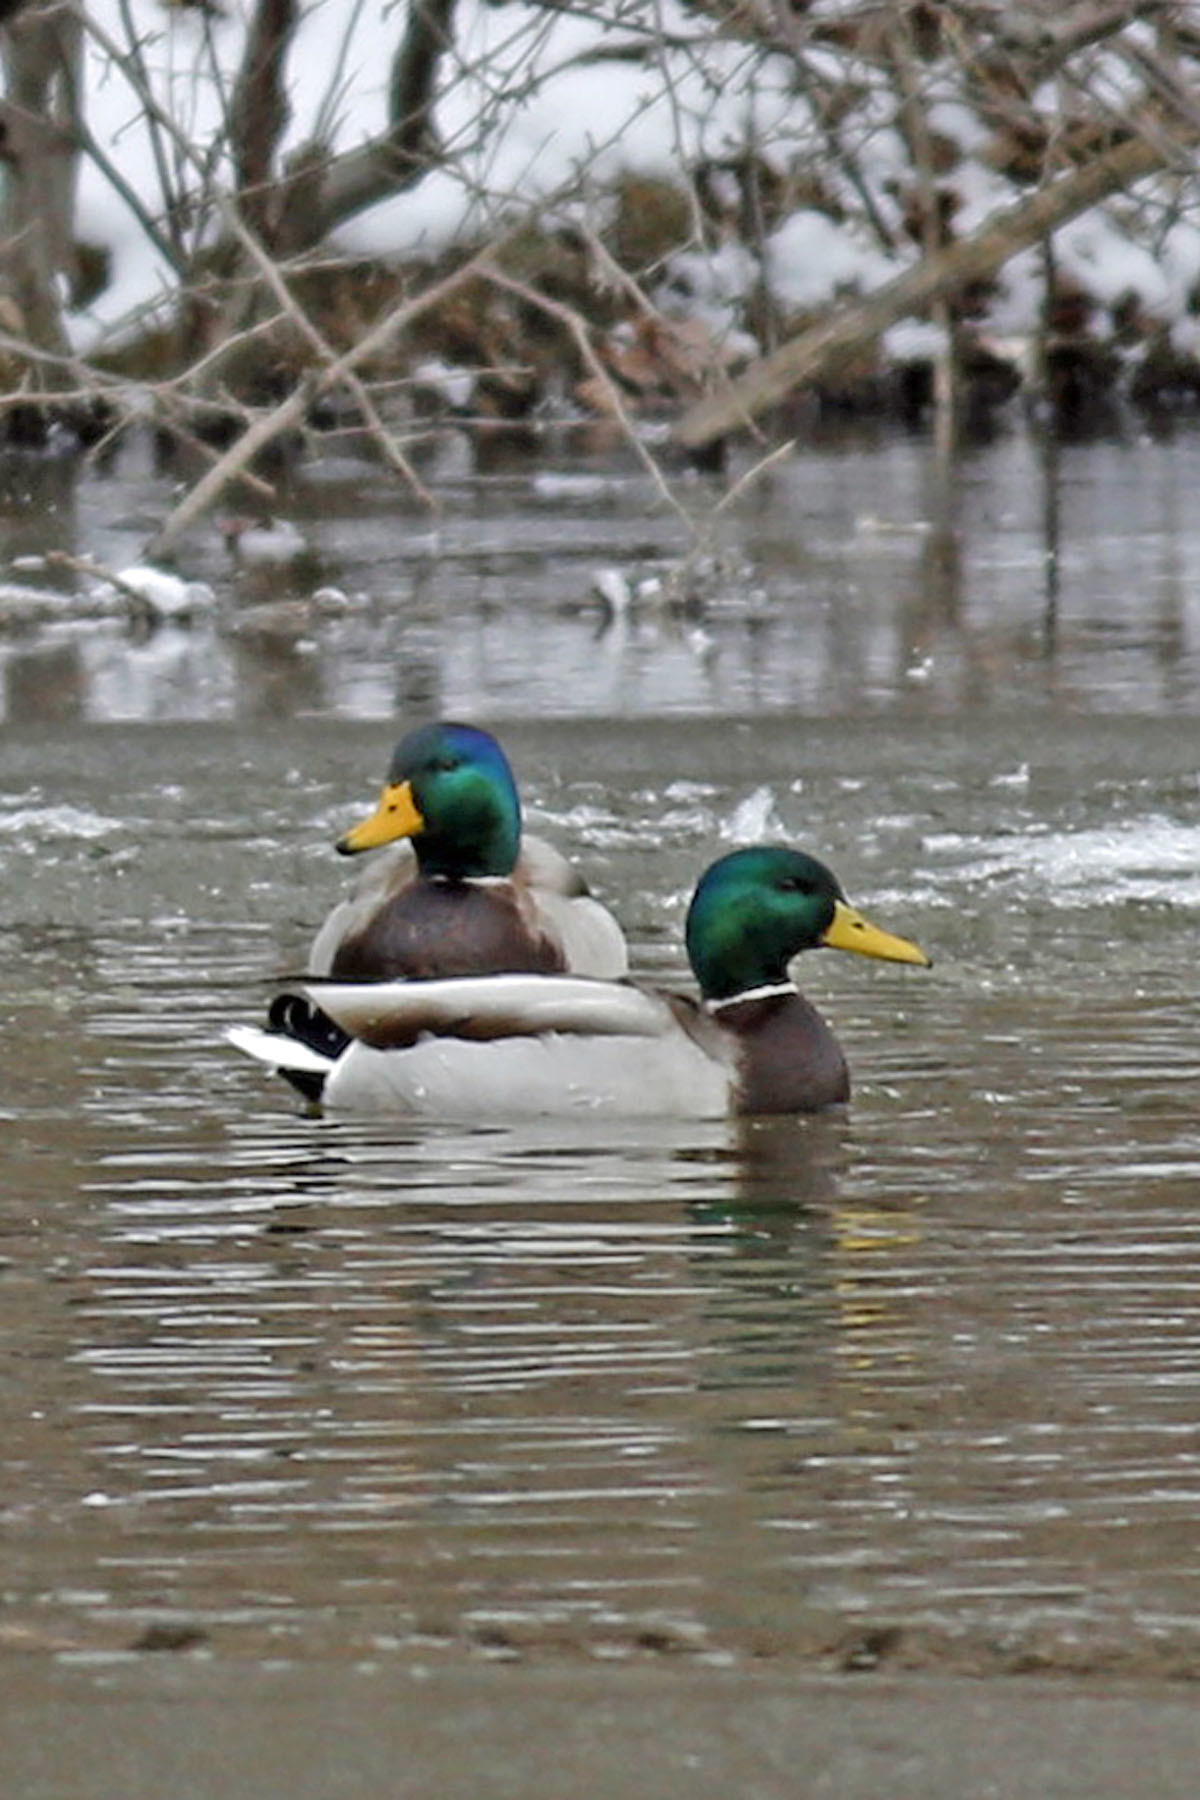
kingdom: Animalia
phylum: Chordata
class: Aves
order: Anseriformes
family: Anatidae
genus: Anas
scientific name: Anas platyrhynchos
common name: Mallard
